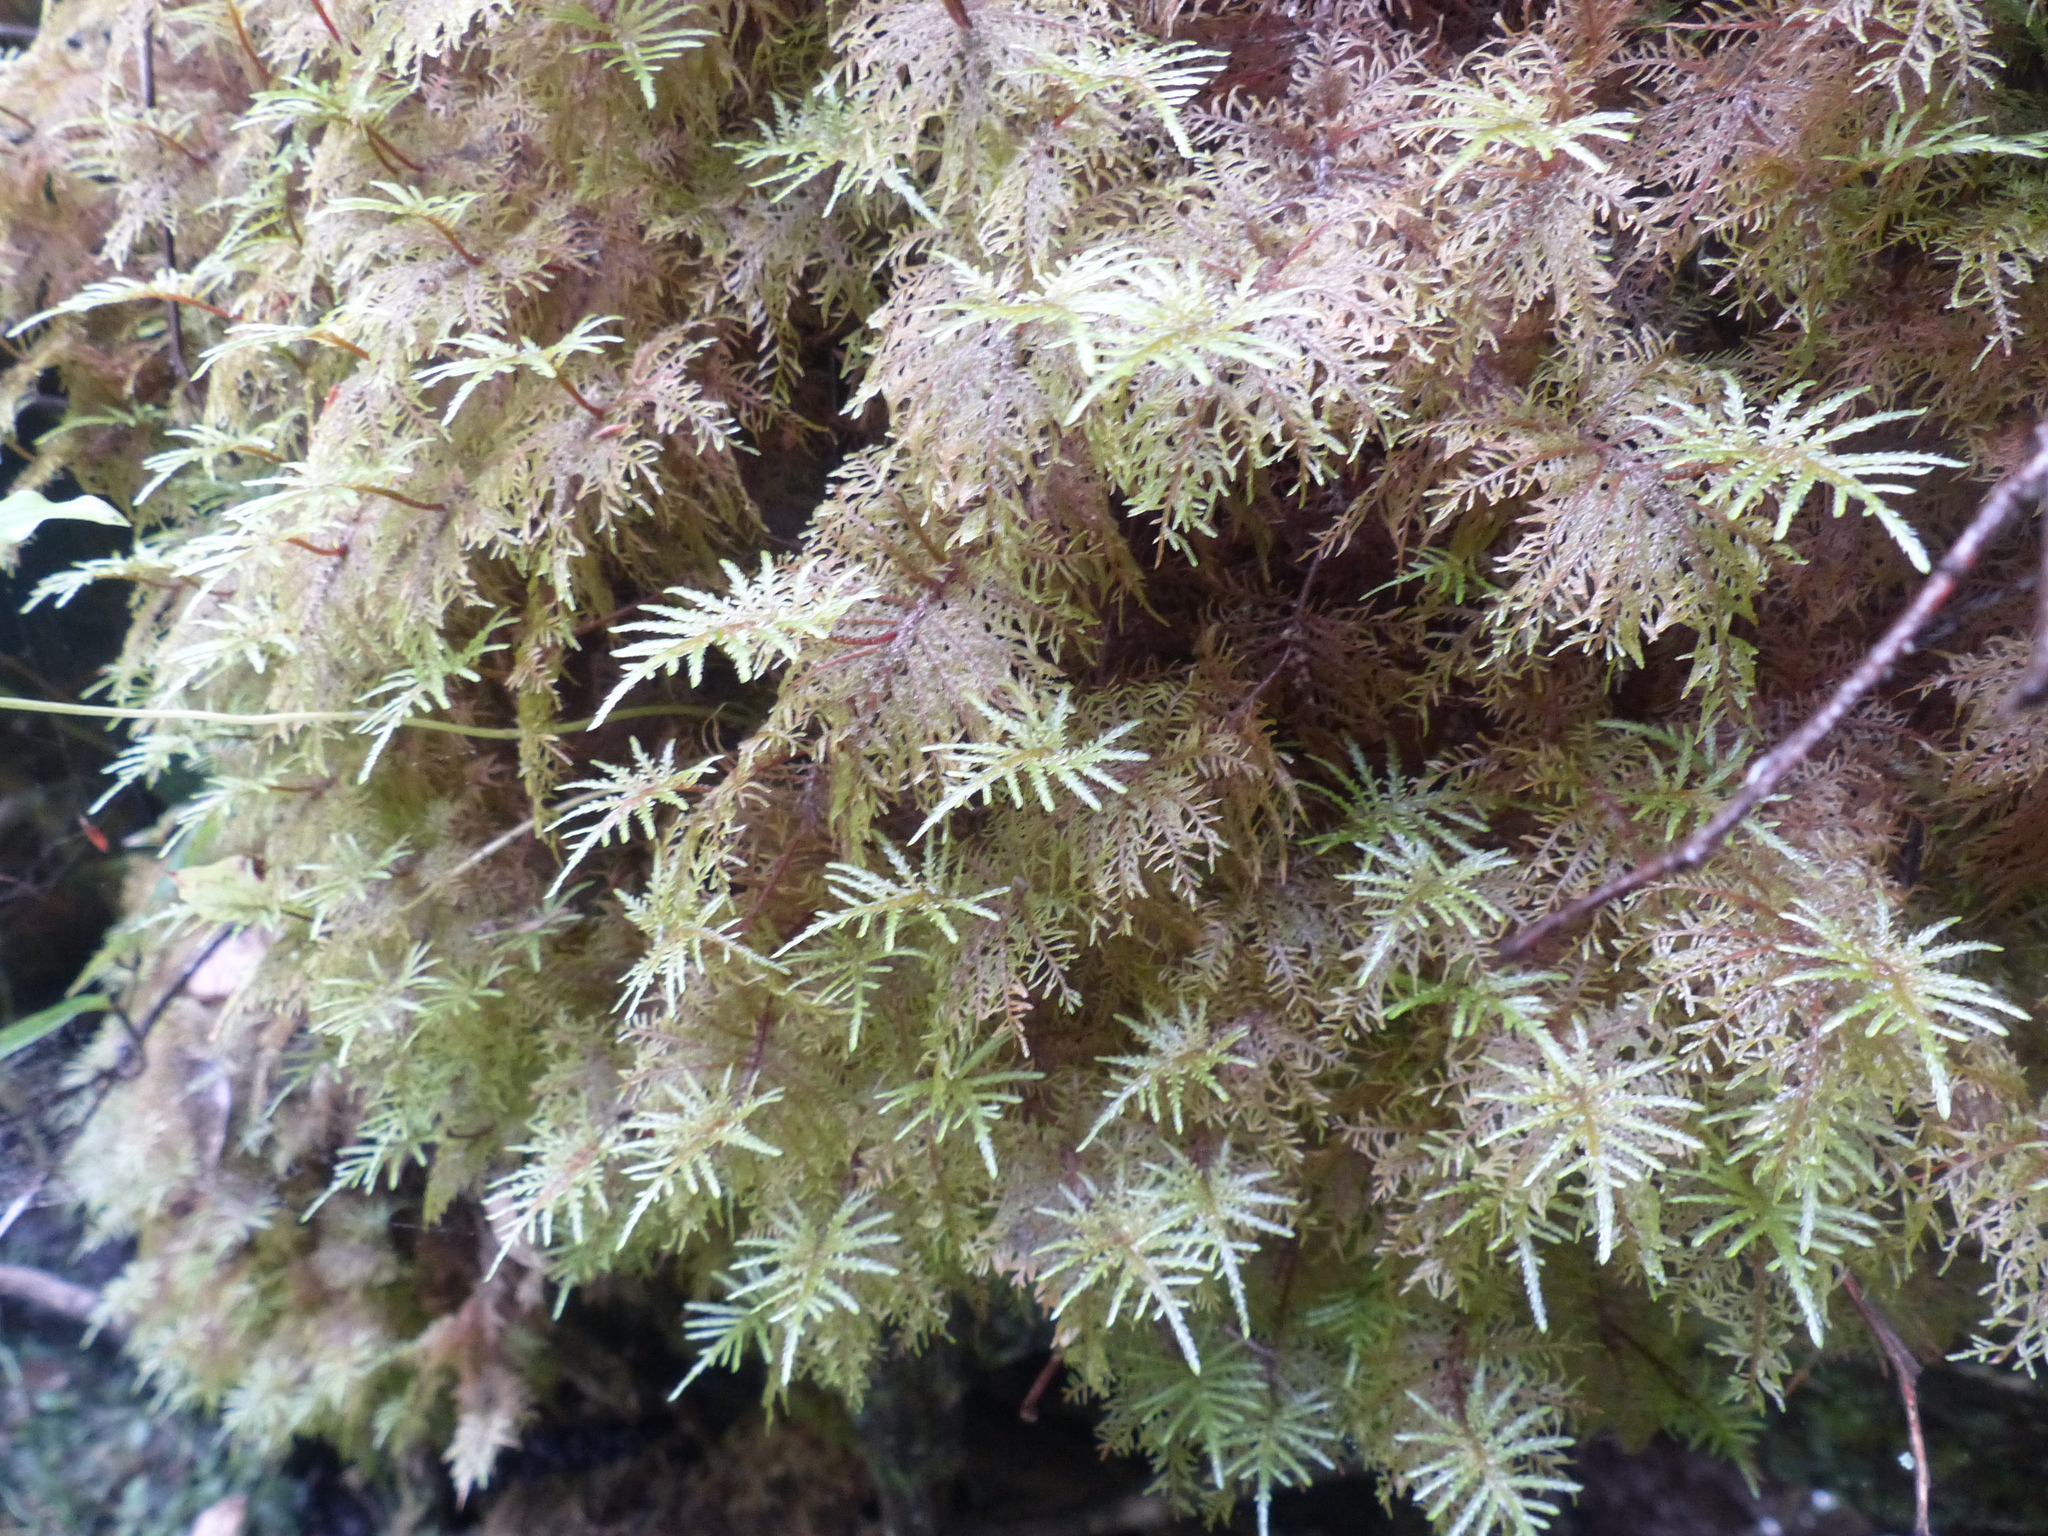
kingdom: Plantae
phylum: Bryophyta
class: Bryopsida
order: Hypnales
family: Hylocomiaceae
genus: Hylocomium
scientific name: Hylocomium splendens
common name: Stairstep moss
